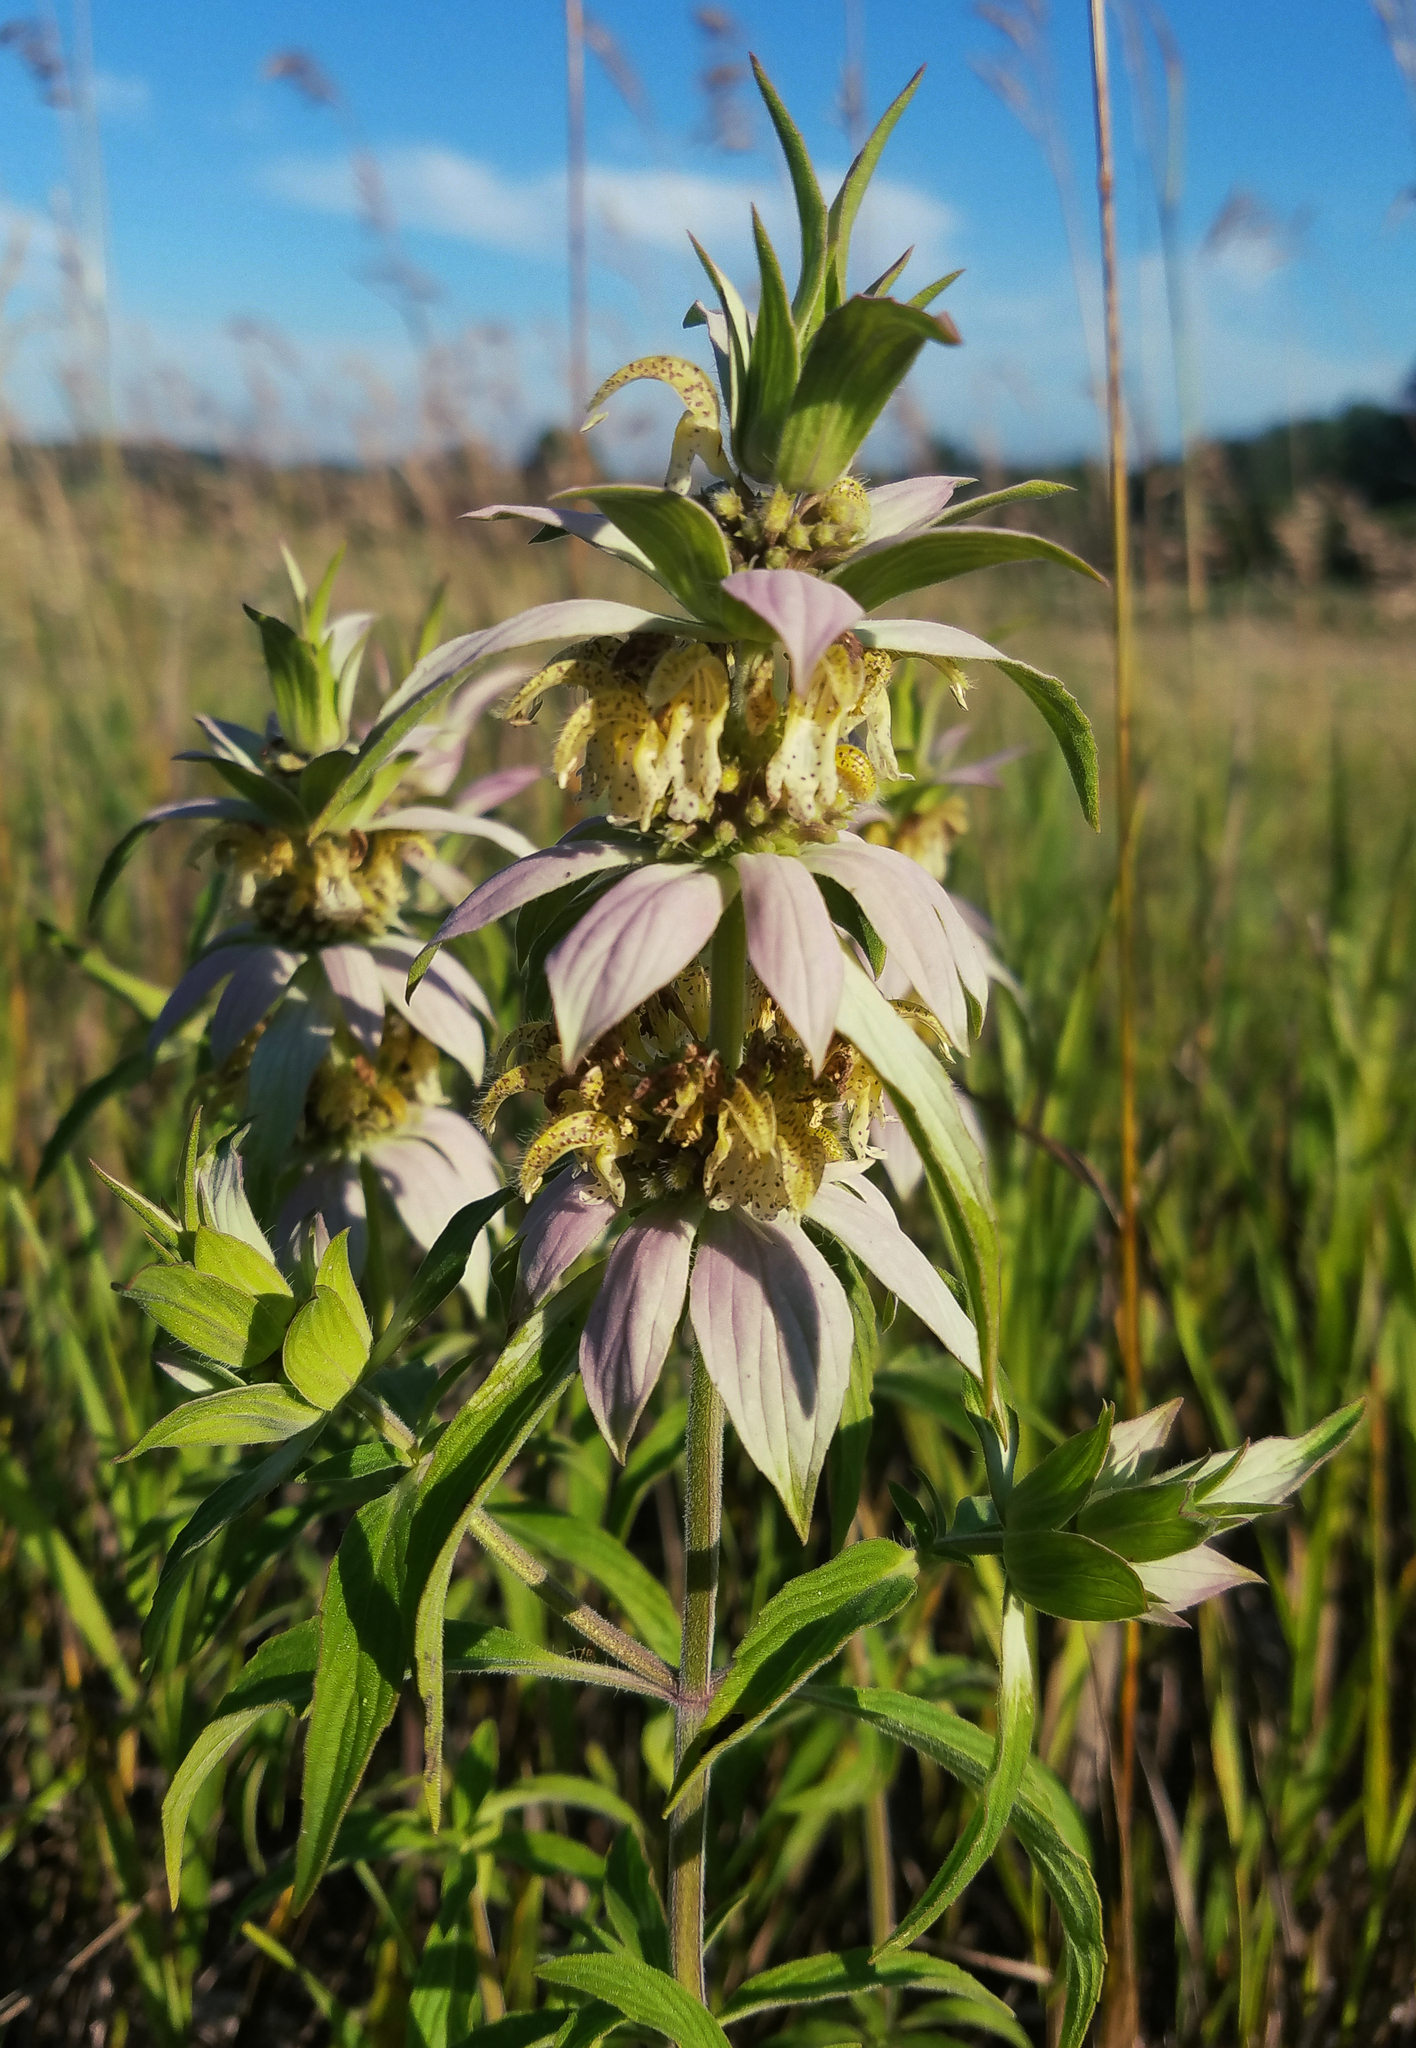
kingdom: Plantae
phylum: Tracheophyta
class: Magnoliopsida
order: Lamiales
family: Lamiaceae
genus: Monarda
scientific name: Monarda punctata
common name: Dotted monarda
